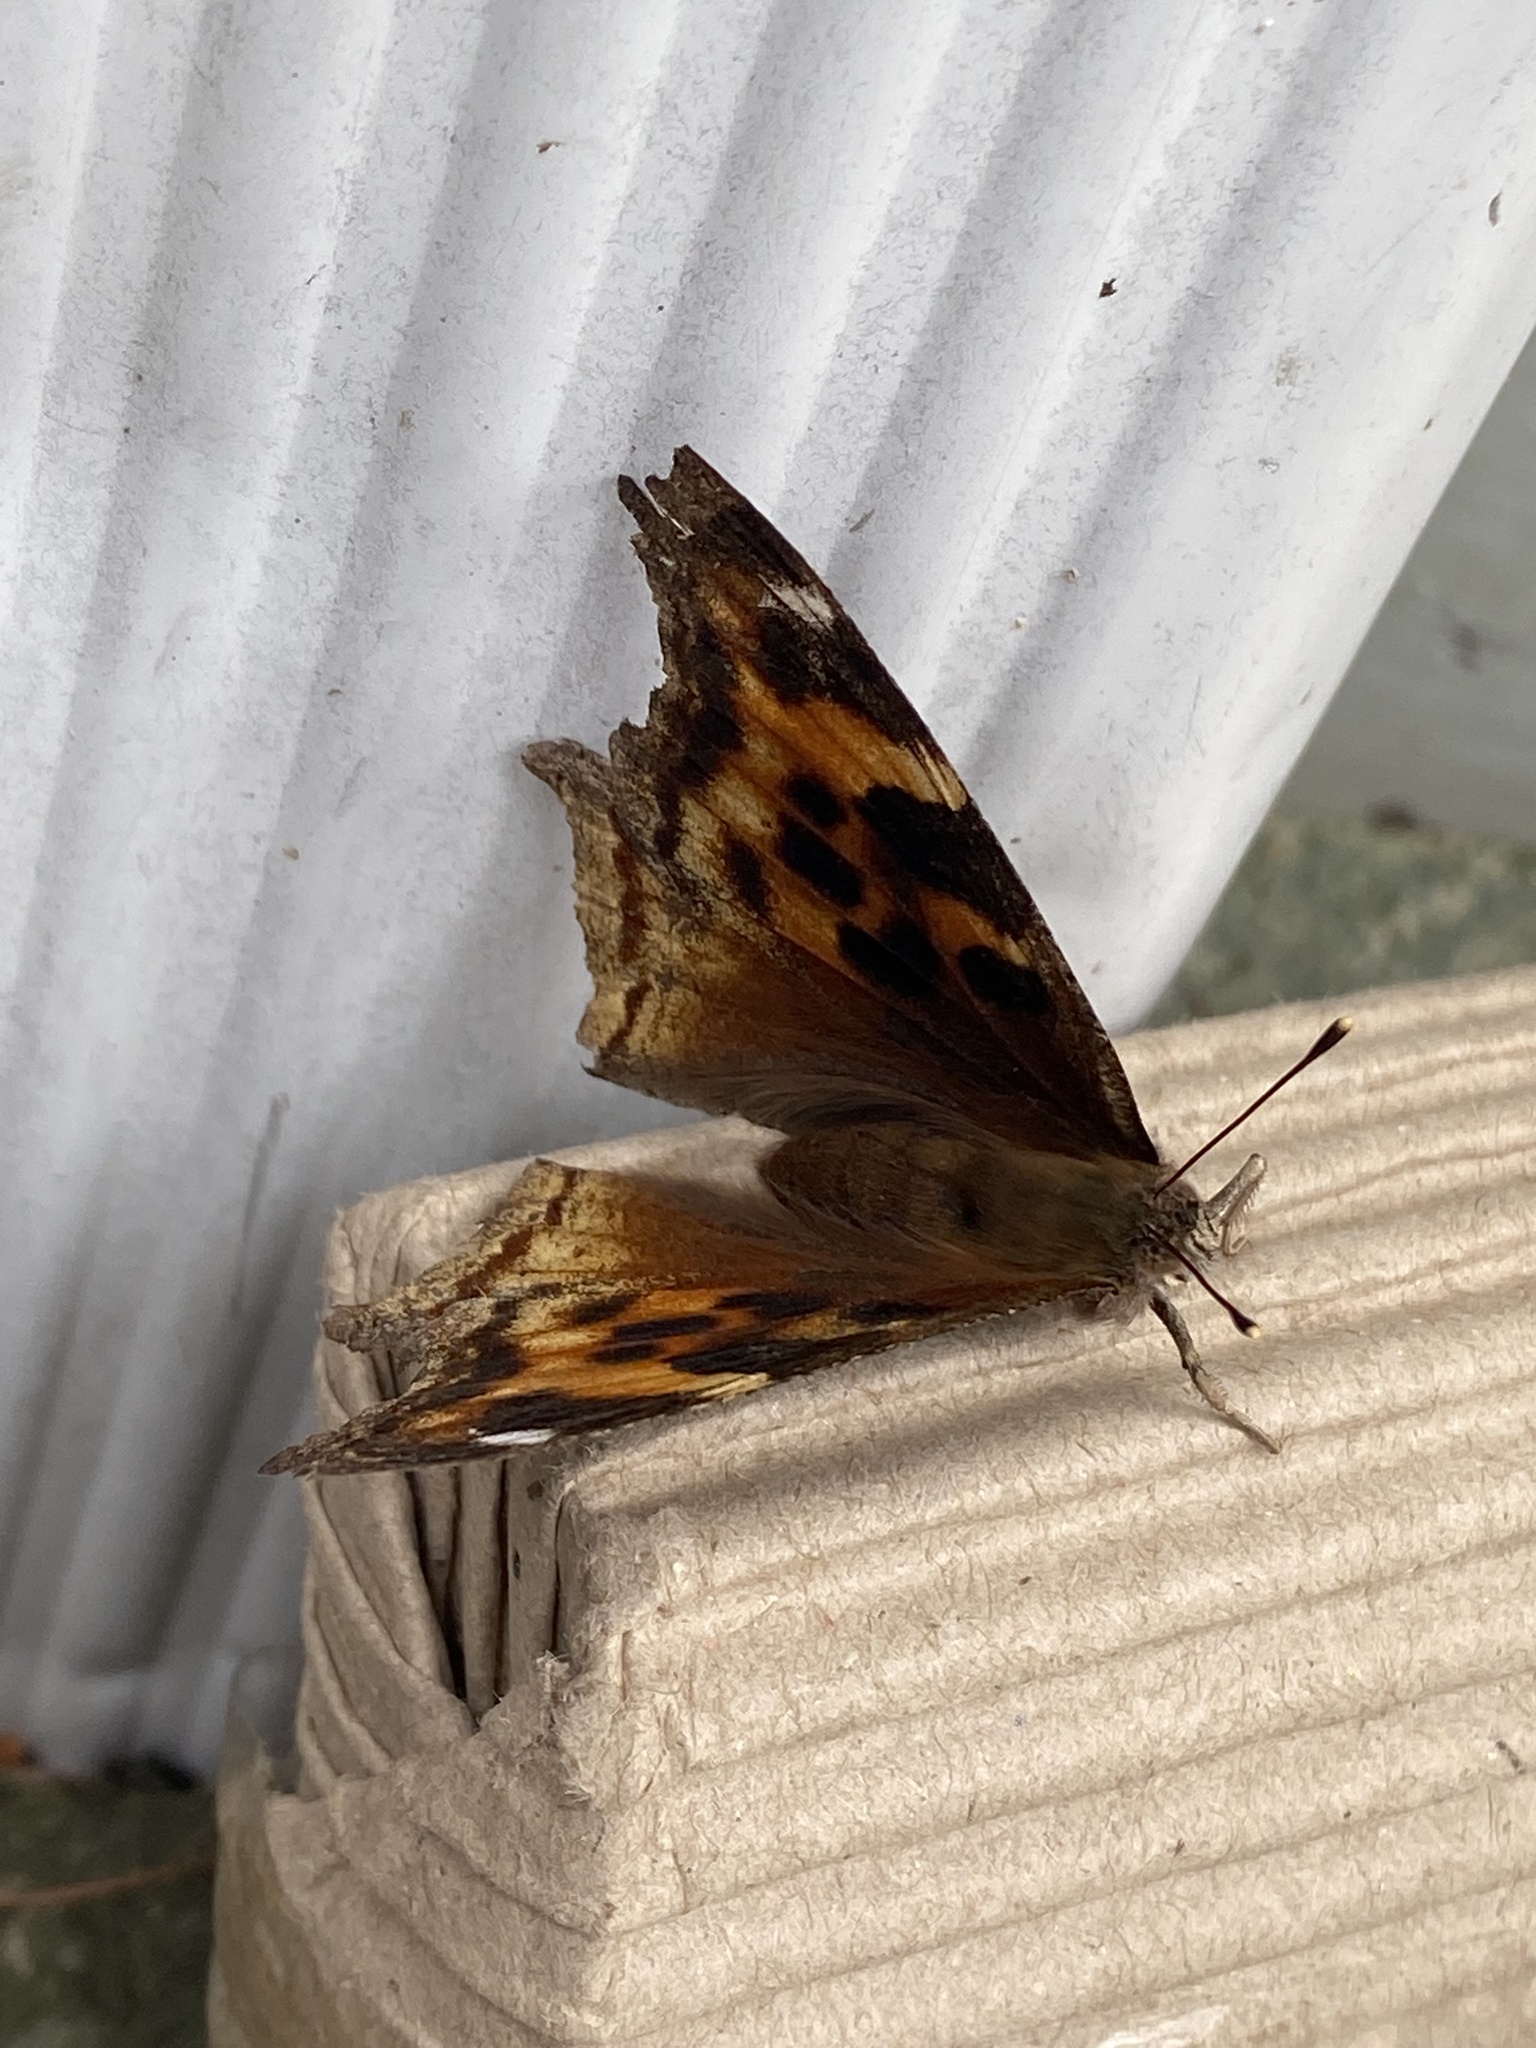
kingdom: Animalia
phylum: Arthropoda
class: Insecta
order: Lepidoptera
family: Nymphalidae
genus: Polygonia
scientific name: Polygonia vaualbum
